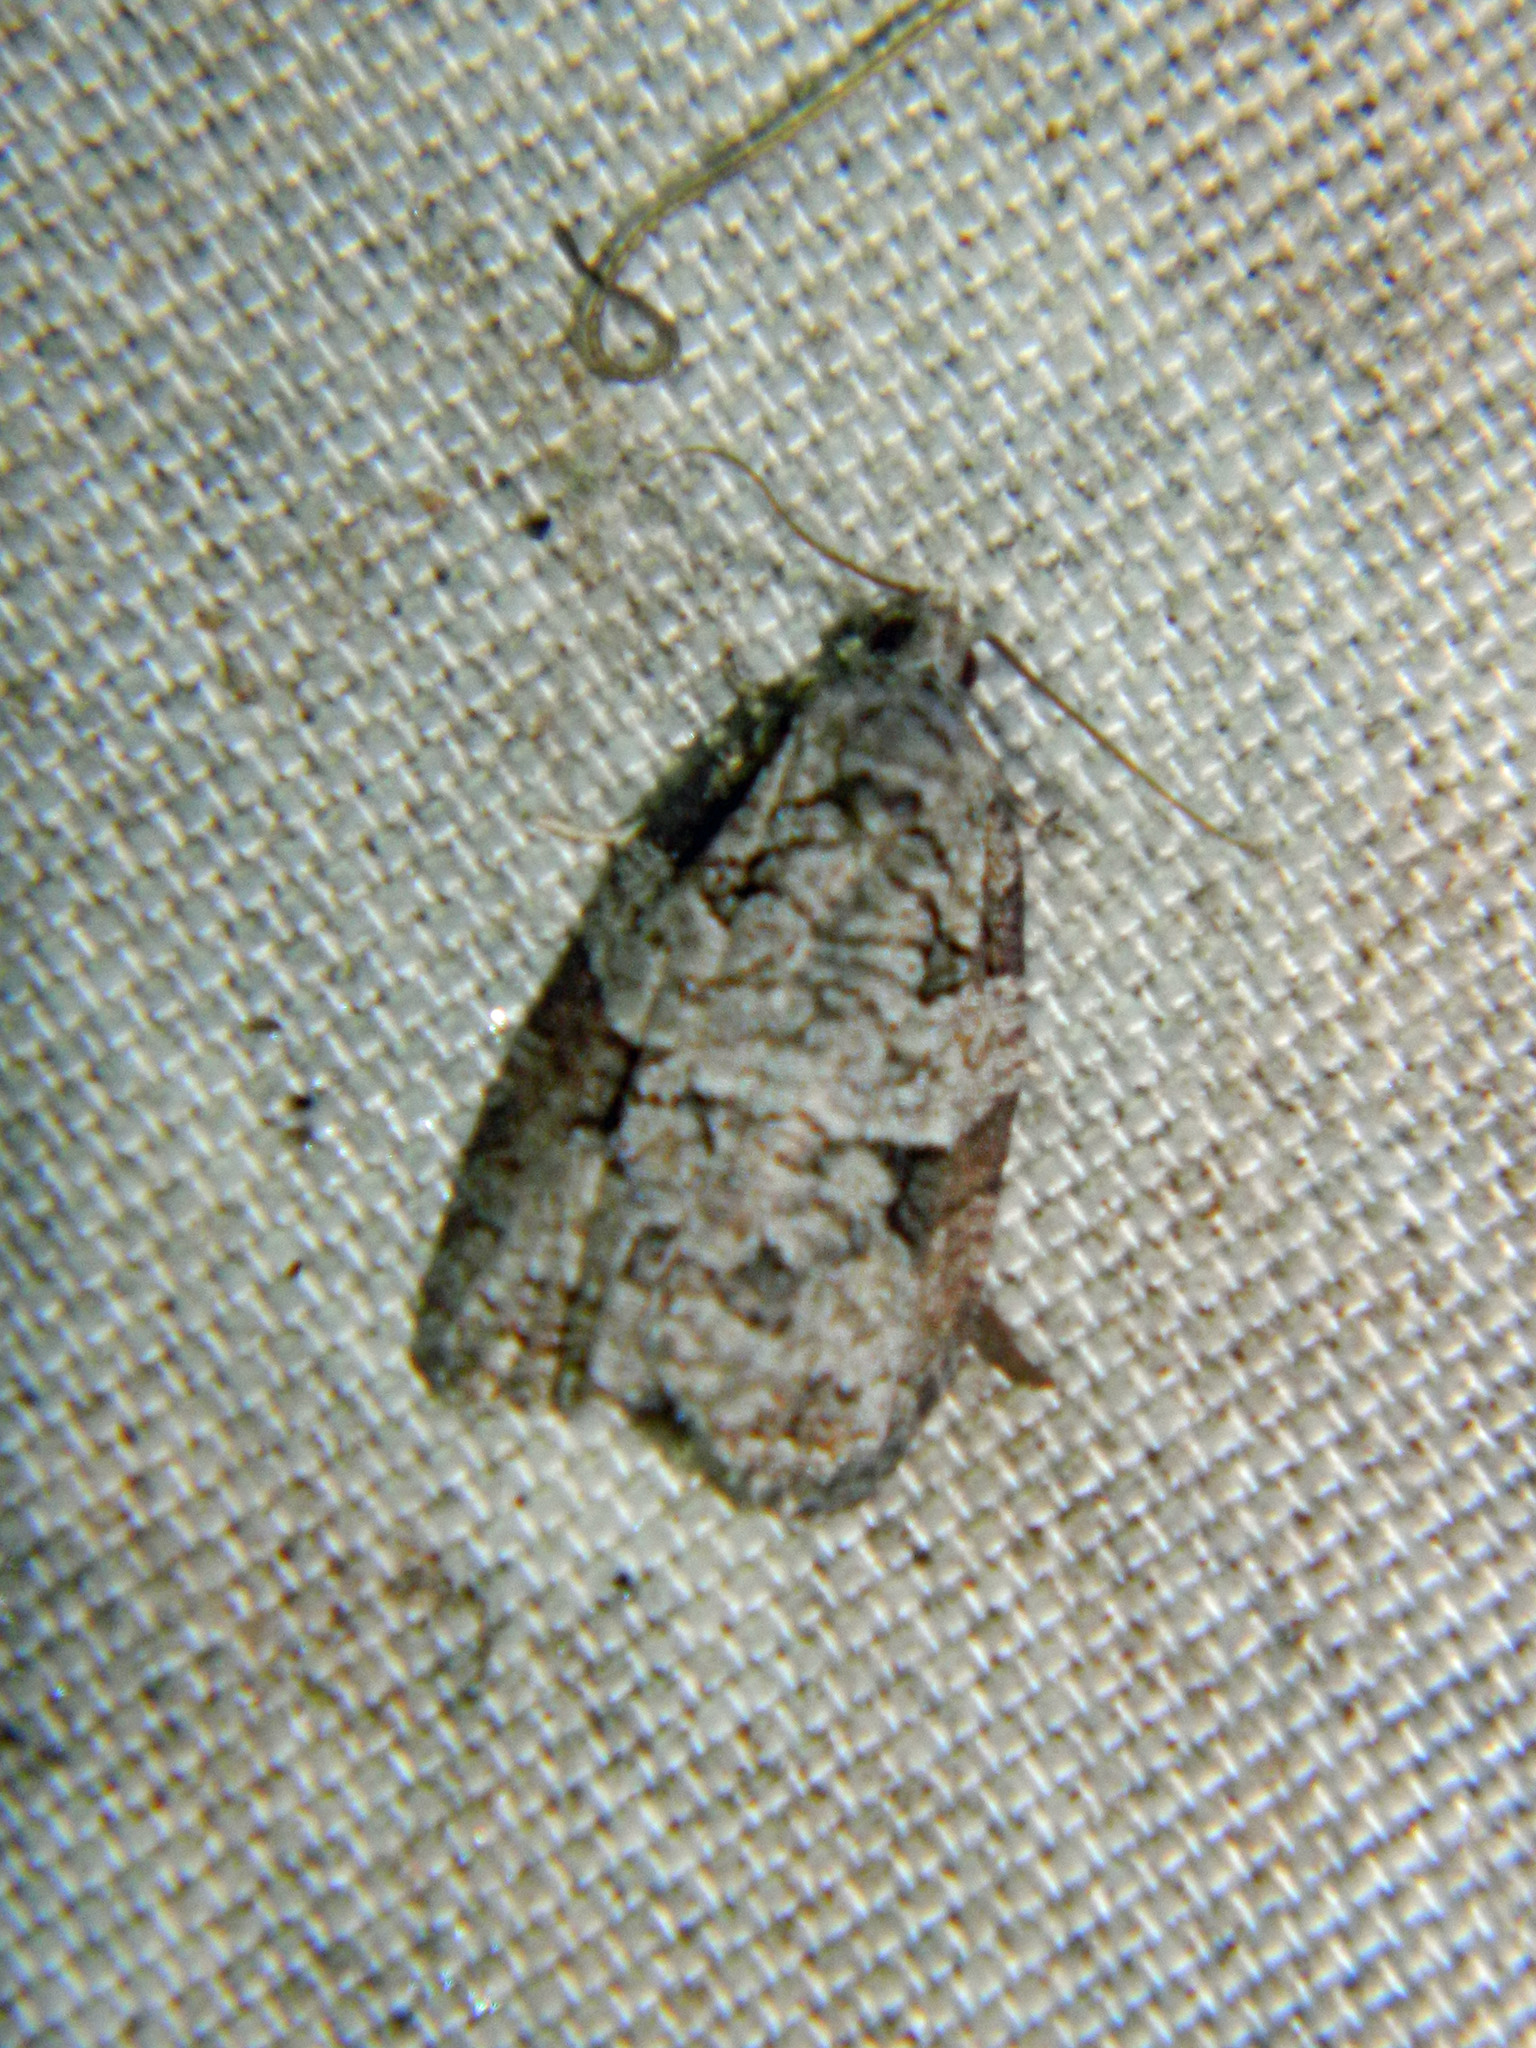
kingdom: Animalia
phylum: Arthropoda
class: Insecta
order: Lepidoptera
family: Tortricidae
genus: Apotomis
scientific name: Apotomis deceptana
